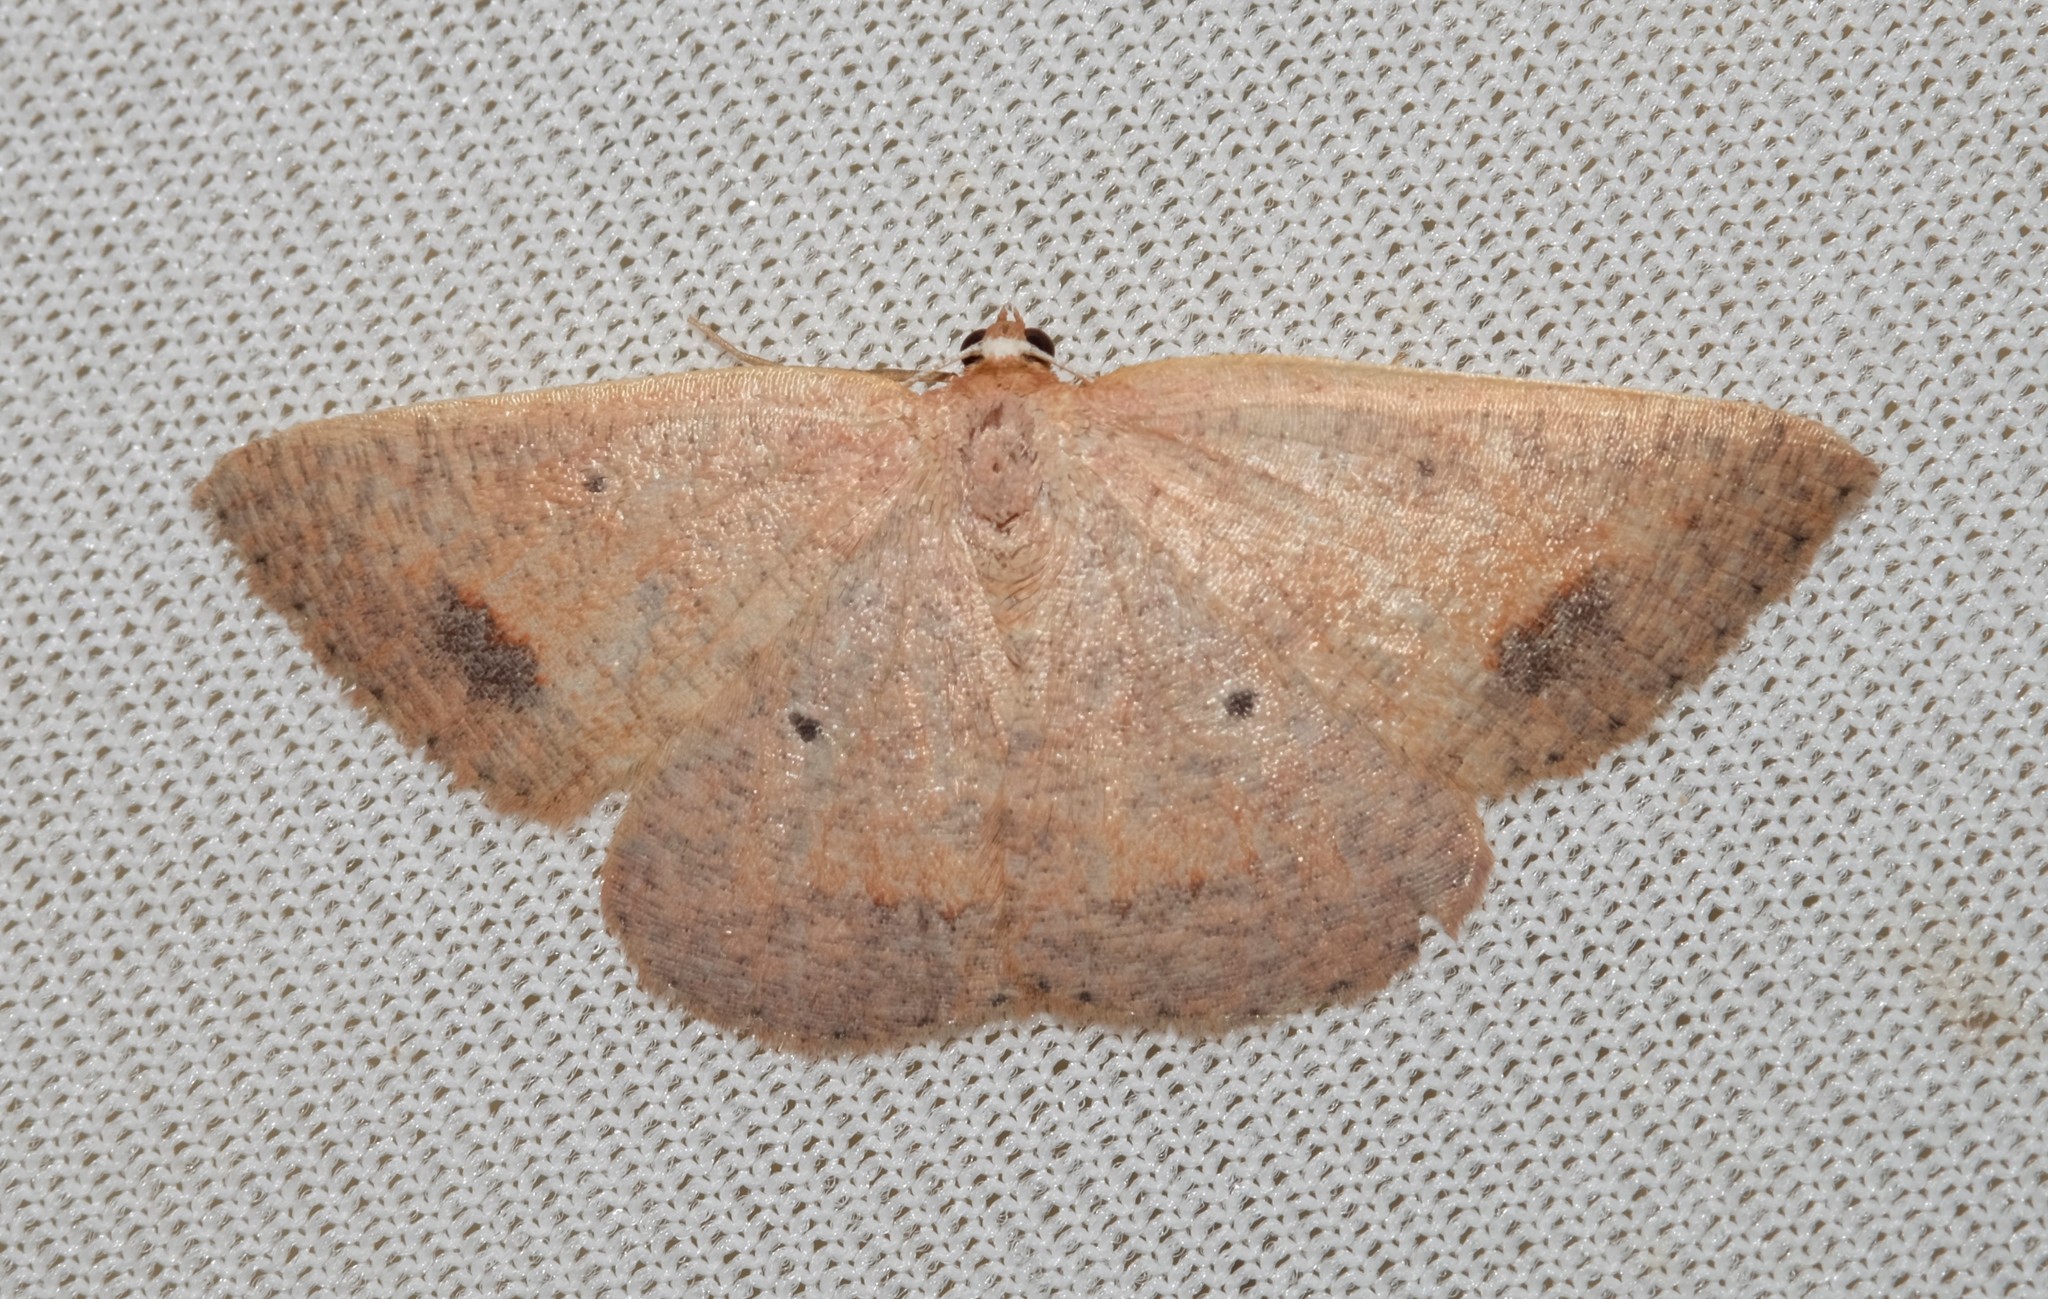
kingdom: Animalia
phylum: Arthropoda
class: Insecta
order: Lepidoptera
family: Geometridae
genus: Casbia
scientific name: Casbia oenias
